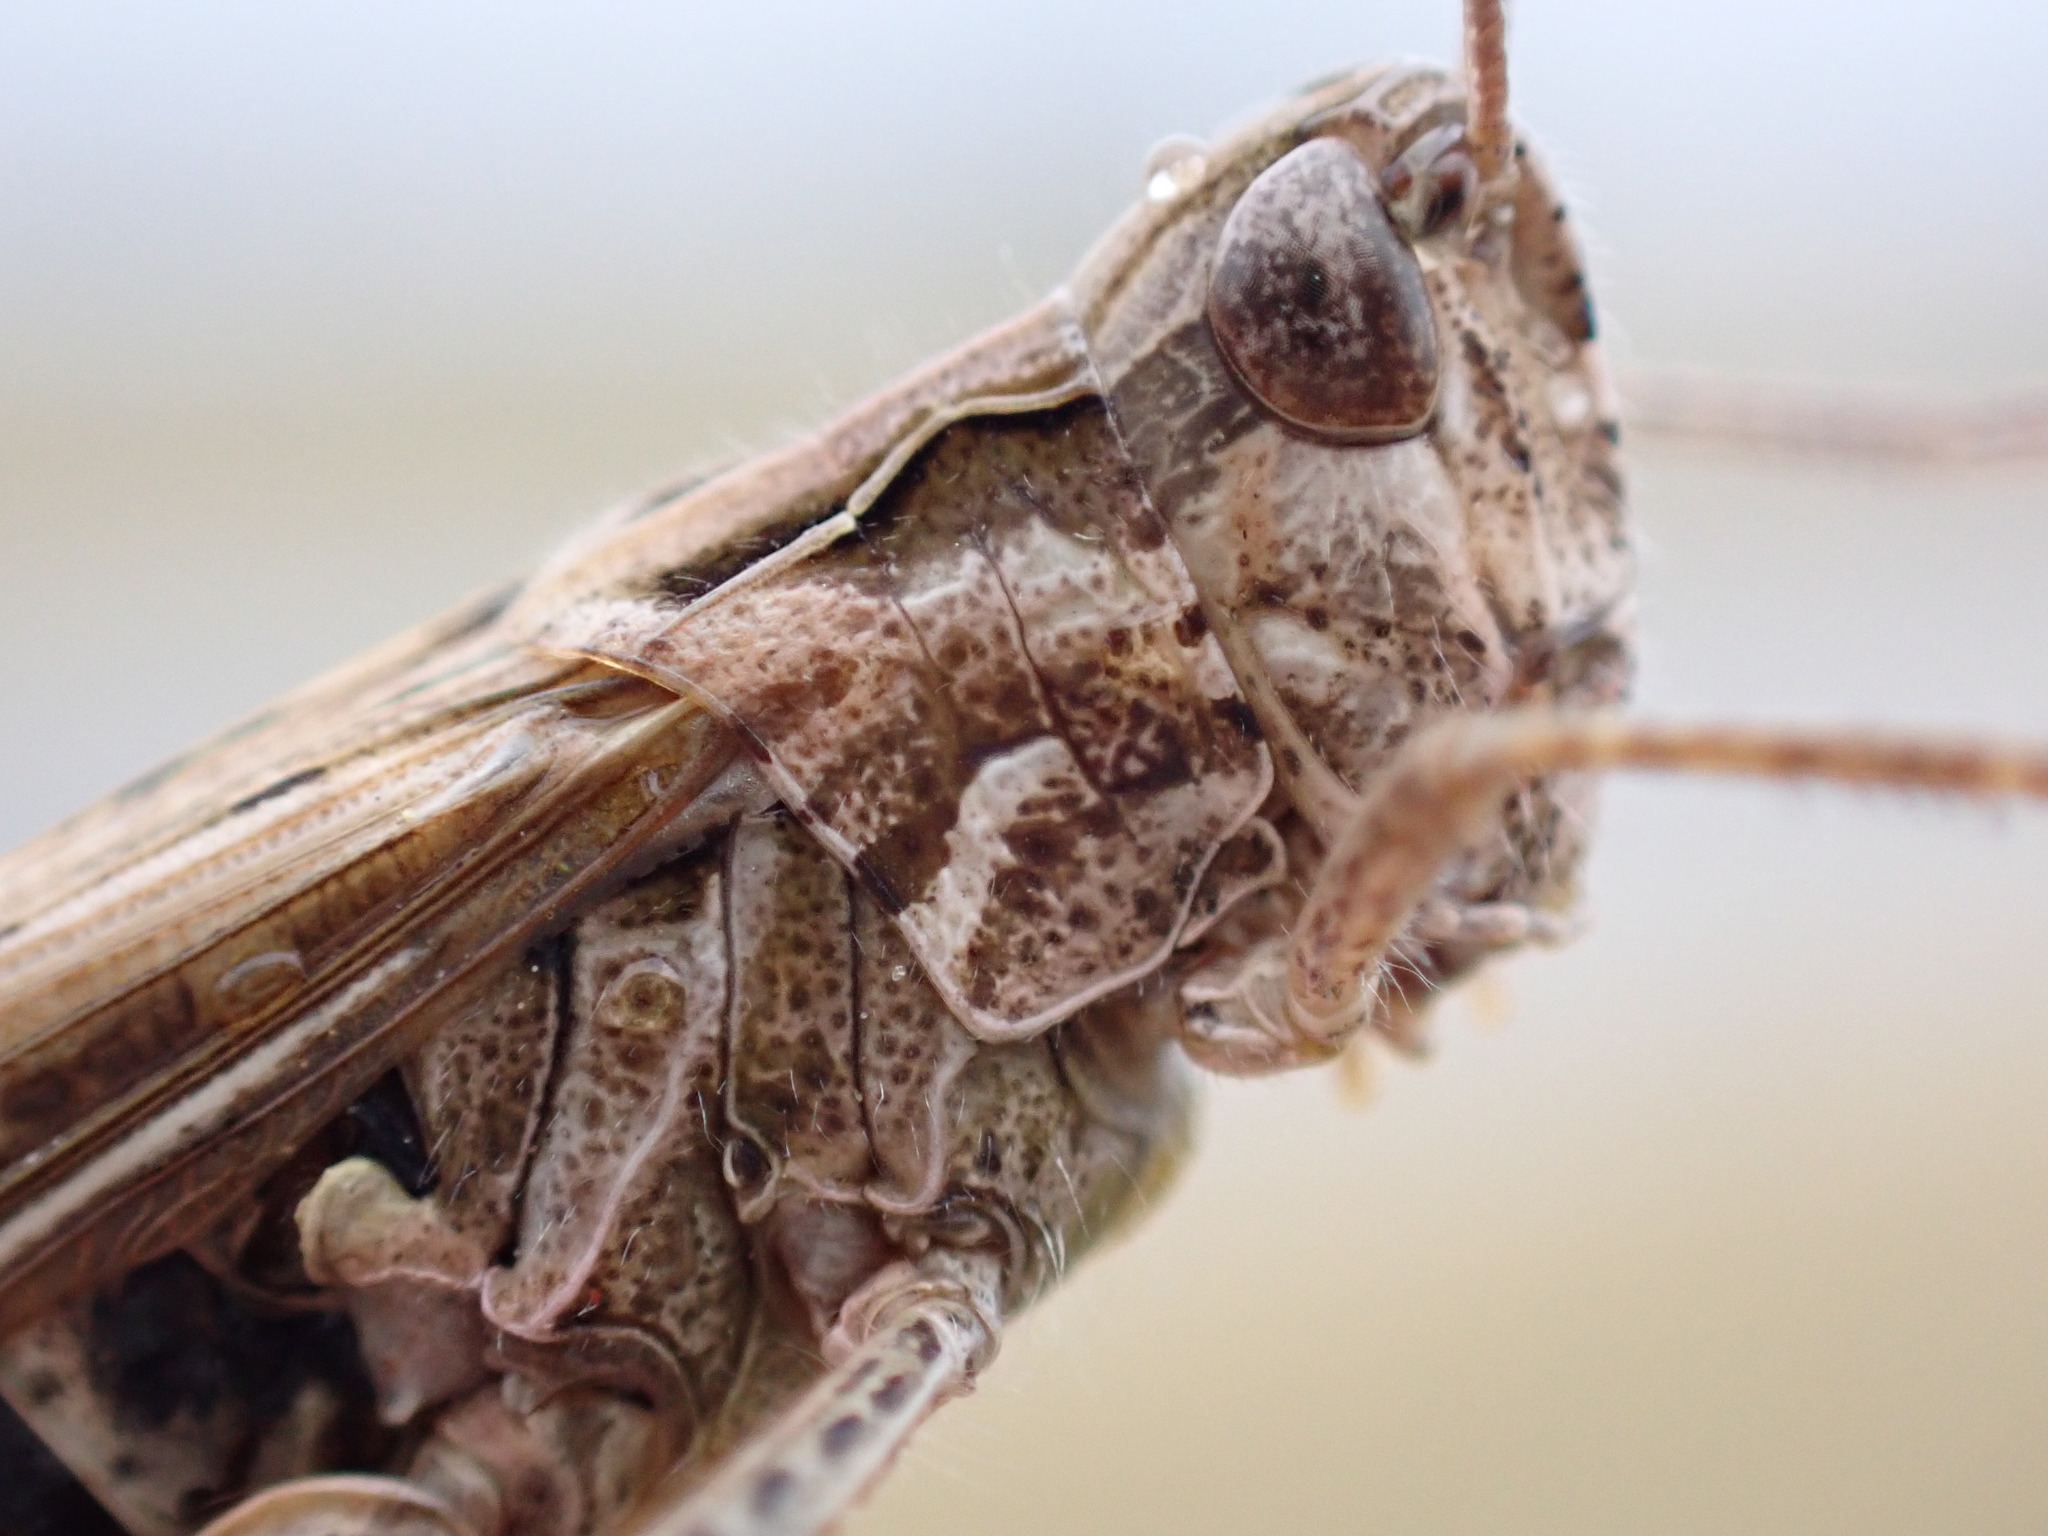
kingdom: Animalia
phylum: Arthropoda
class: Insecta
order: Orthoptera
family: Acrididae
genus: Chorthippus
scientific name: Chorthippus brunneus
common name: Field grasshopper
